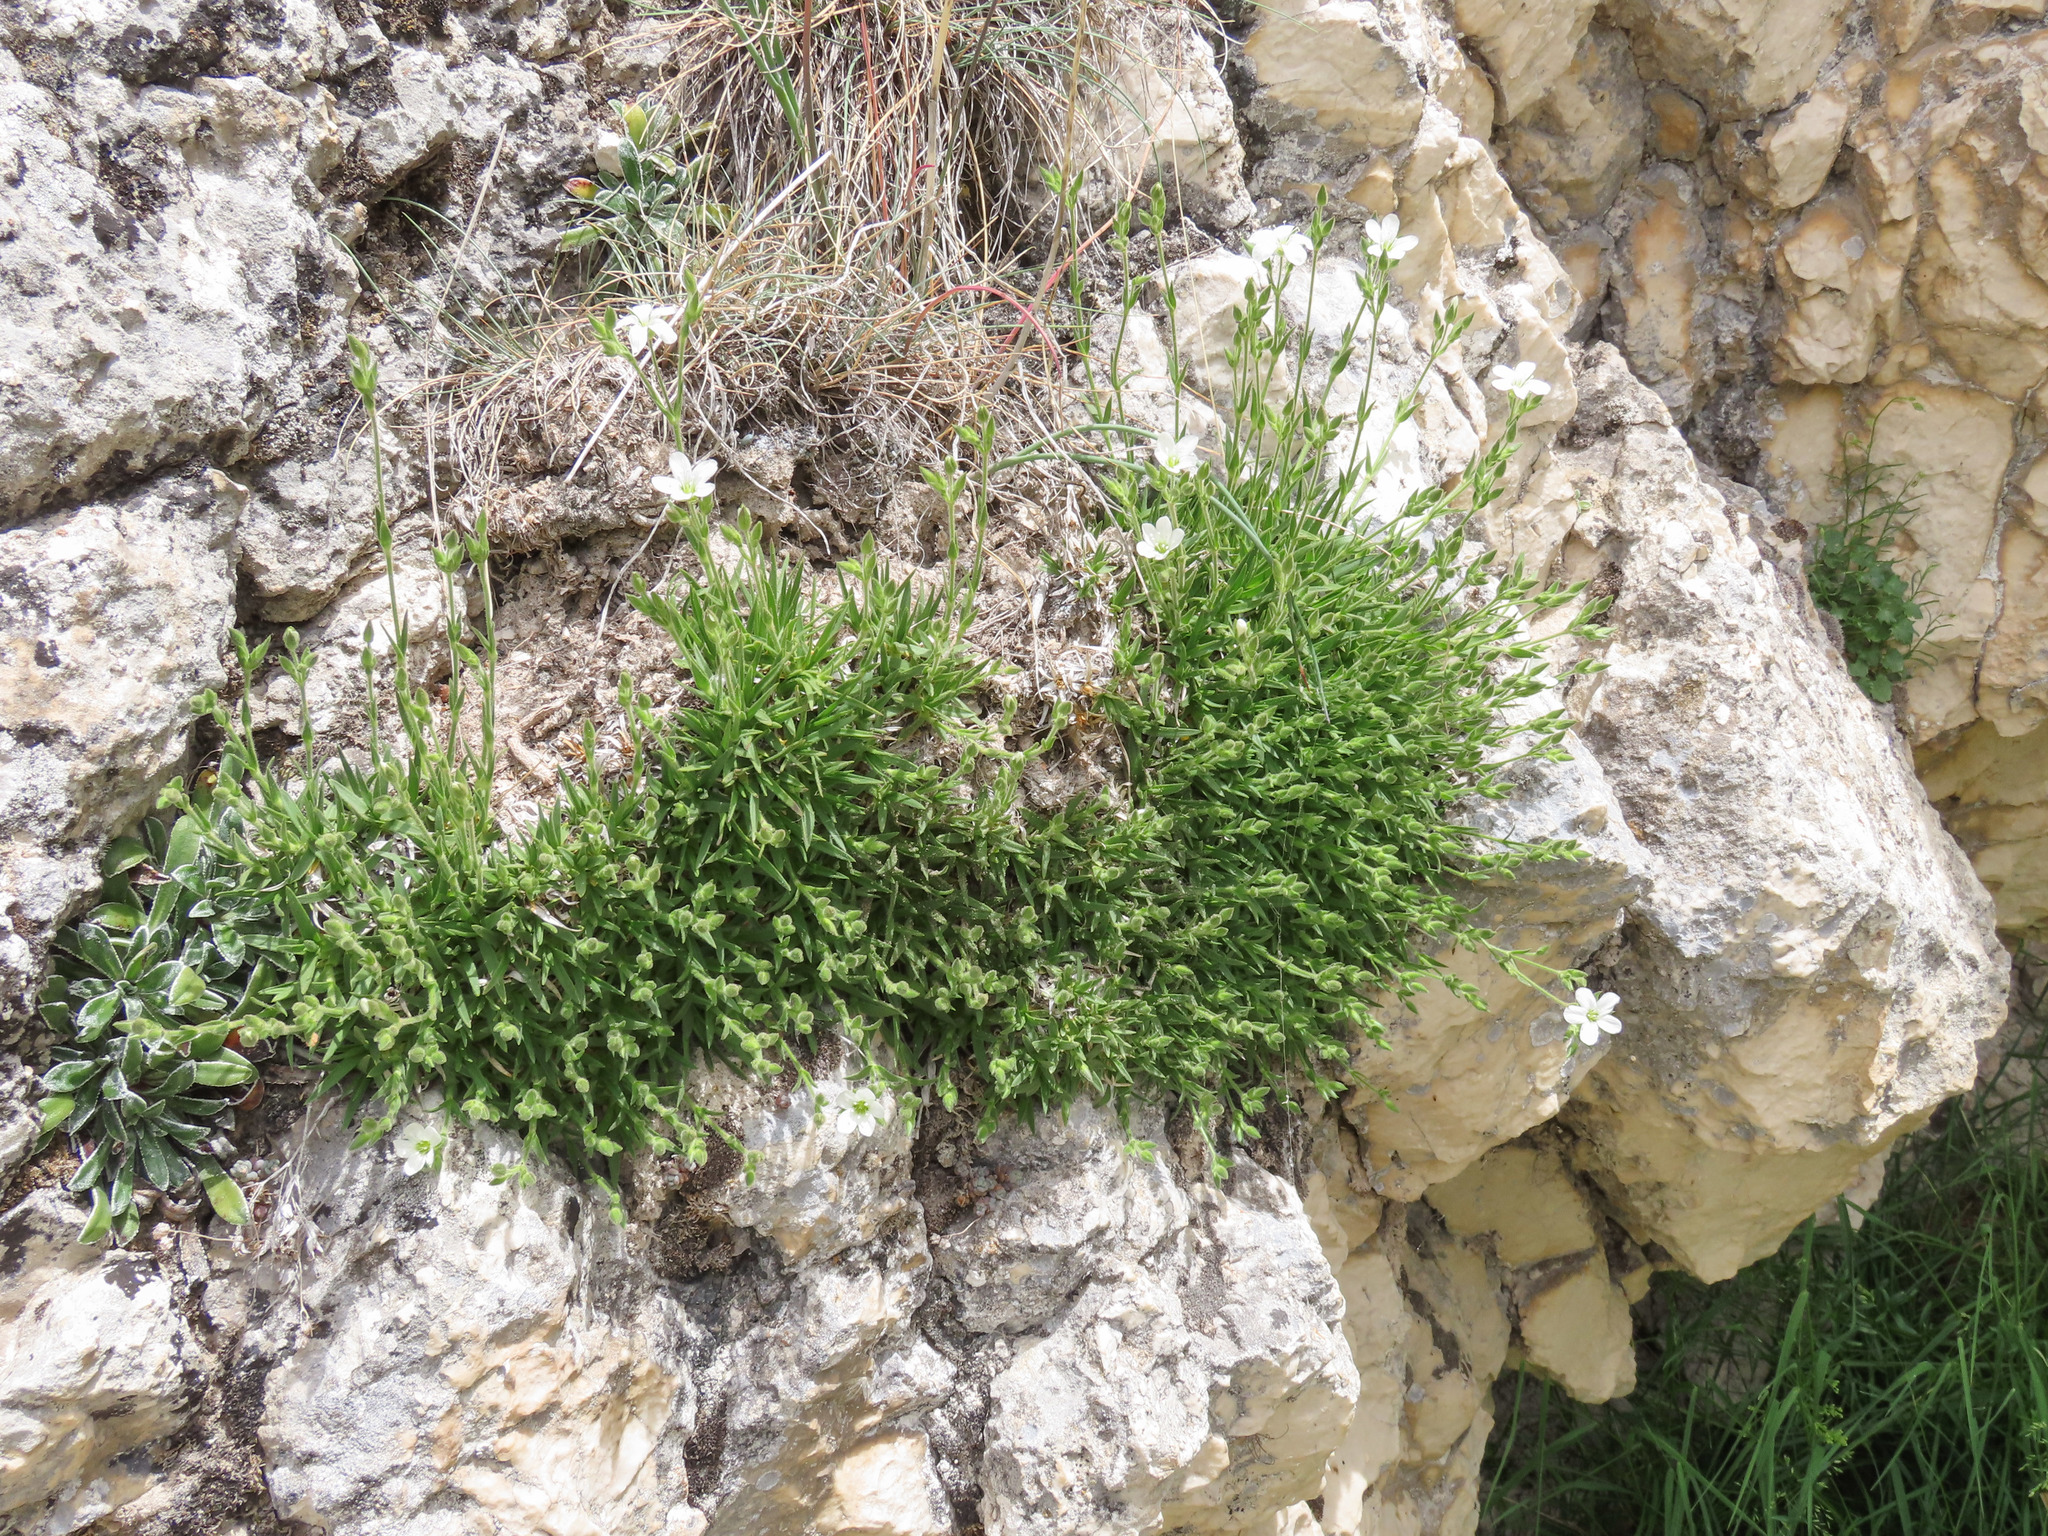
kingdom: Plantae
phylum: Tracheophyta
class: Magnoliopsida
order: Caryophyllales
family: Caryophyllaceae
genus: Mcneillia
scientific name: Mcneillia graminifolia
